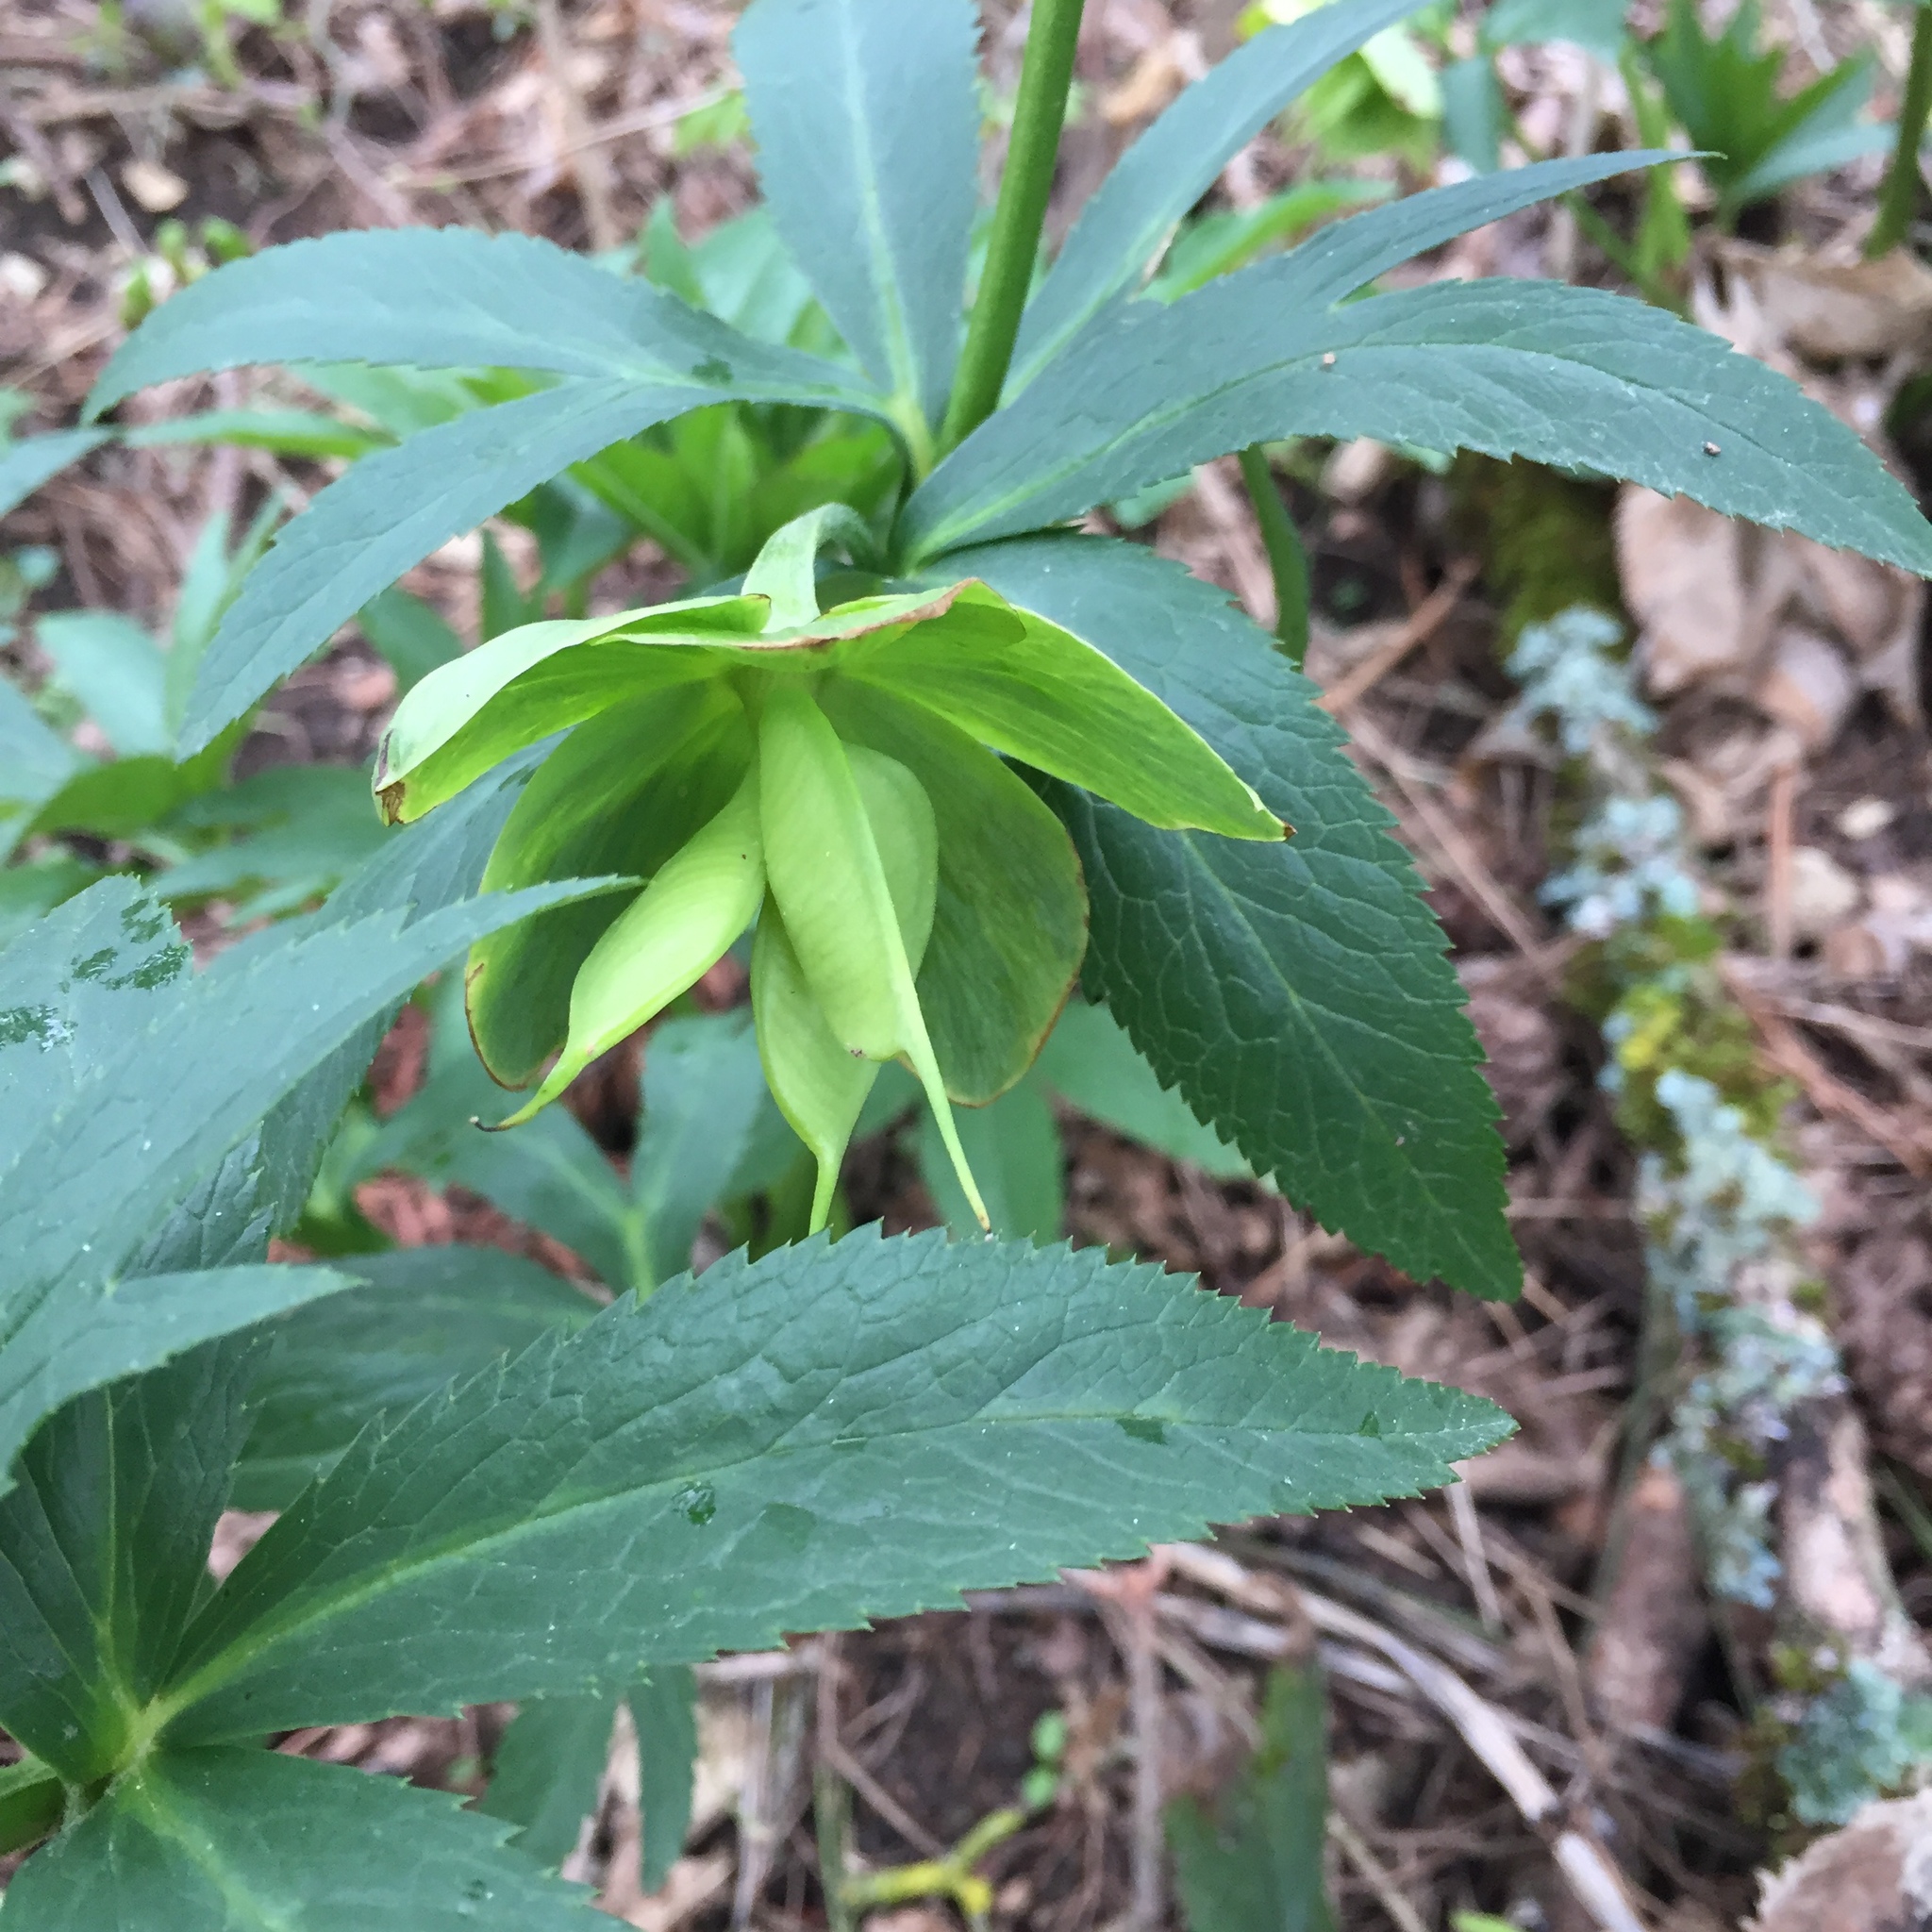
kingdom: Plantae
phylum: Tracheophyta
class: Magnoliopsida
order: Ranunculales
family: Ranunculaceae
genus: Helleborus
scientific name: Helleborus viridis
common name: Green hellebore
